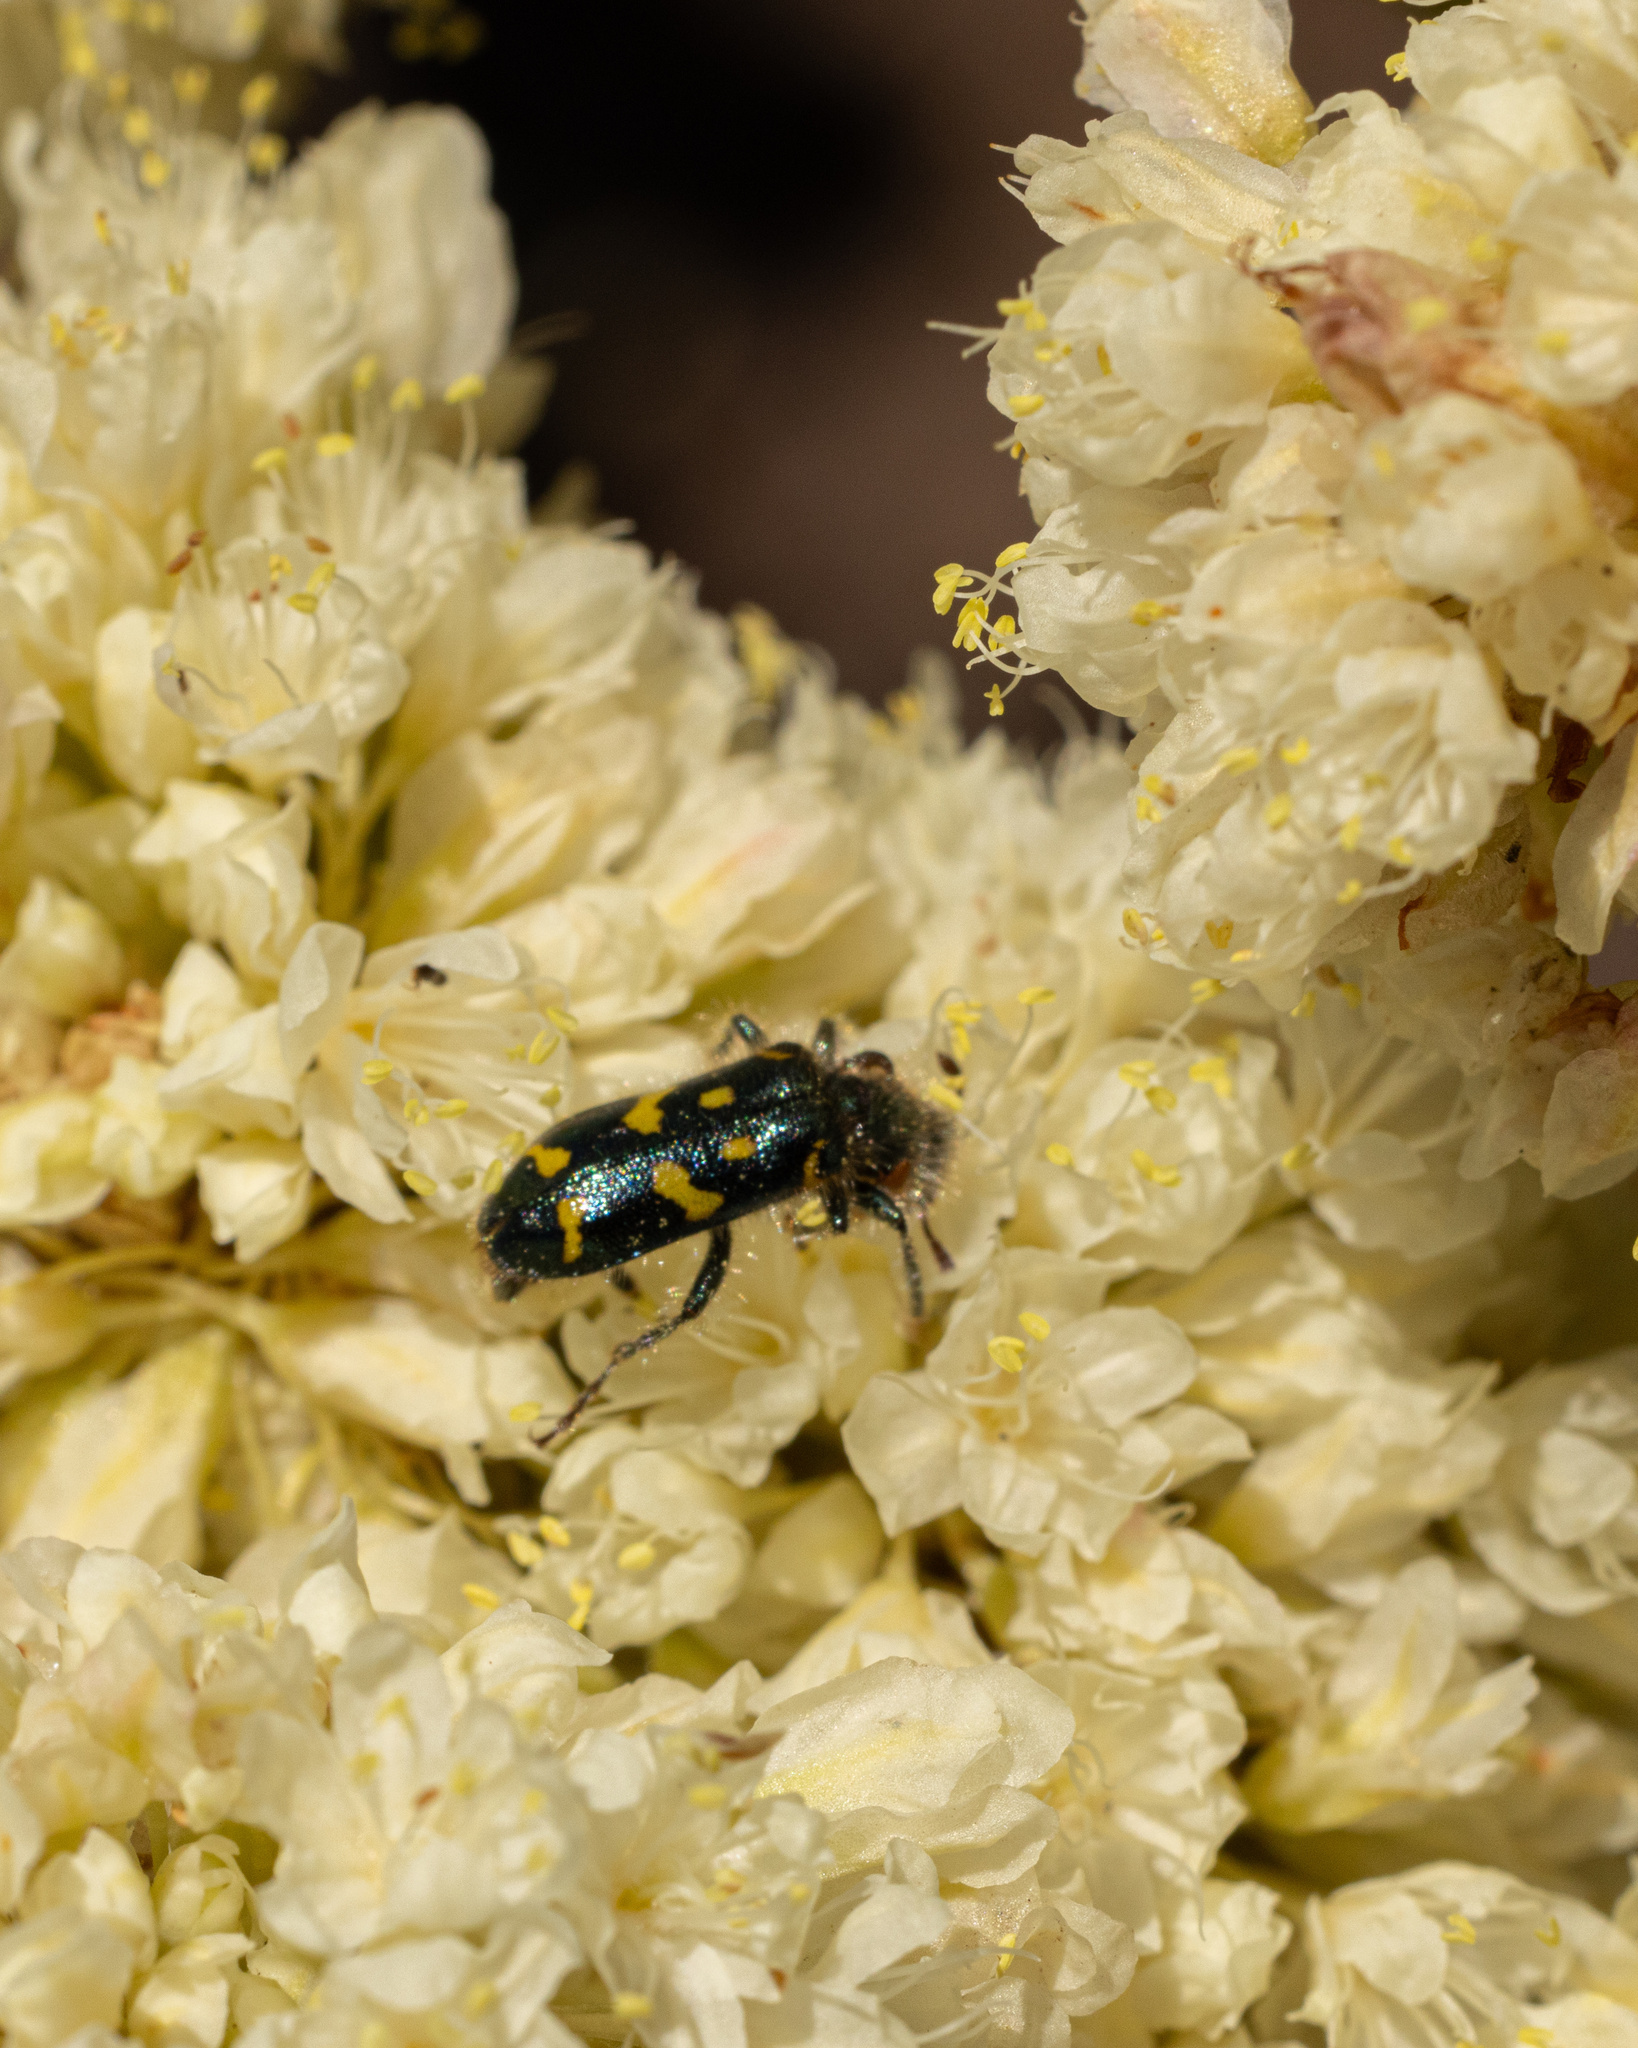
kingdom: Animalia
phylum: Arthropoda
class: Insecta
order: Coleoptera
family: Cleridae
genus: Trichodes
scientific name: Trichodes ornatus
